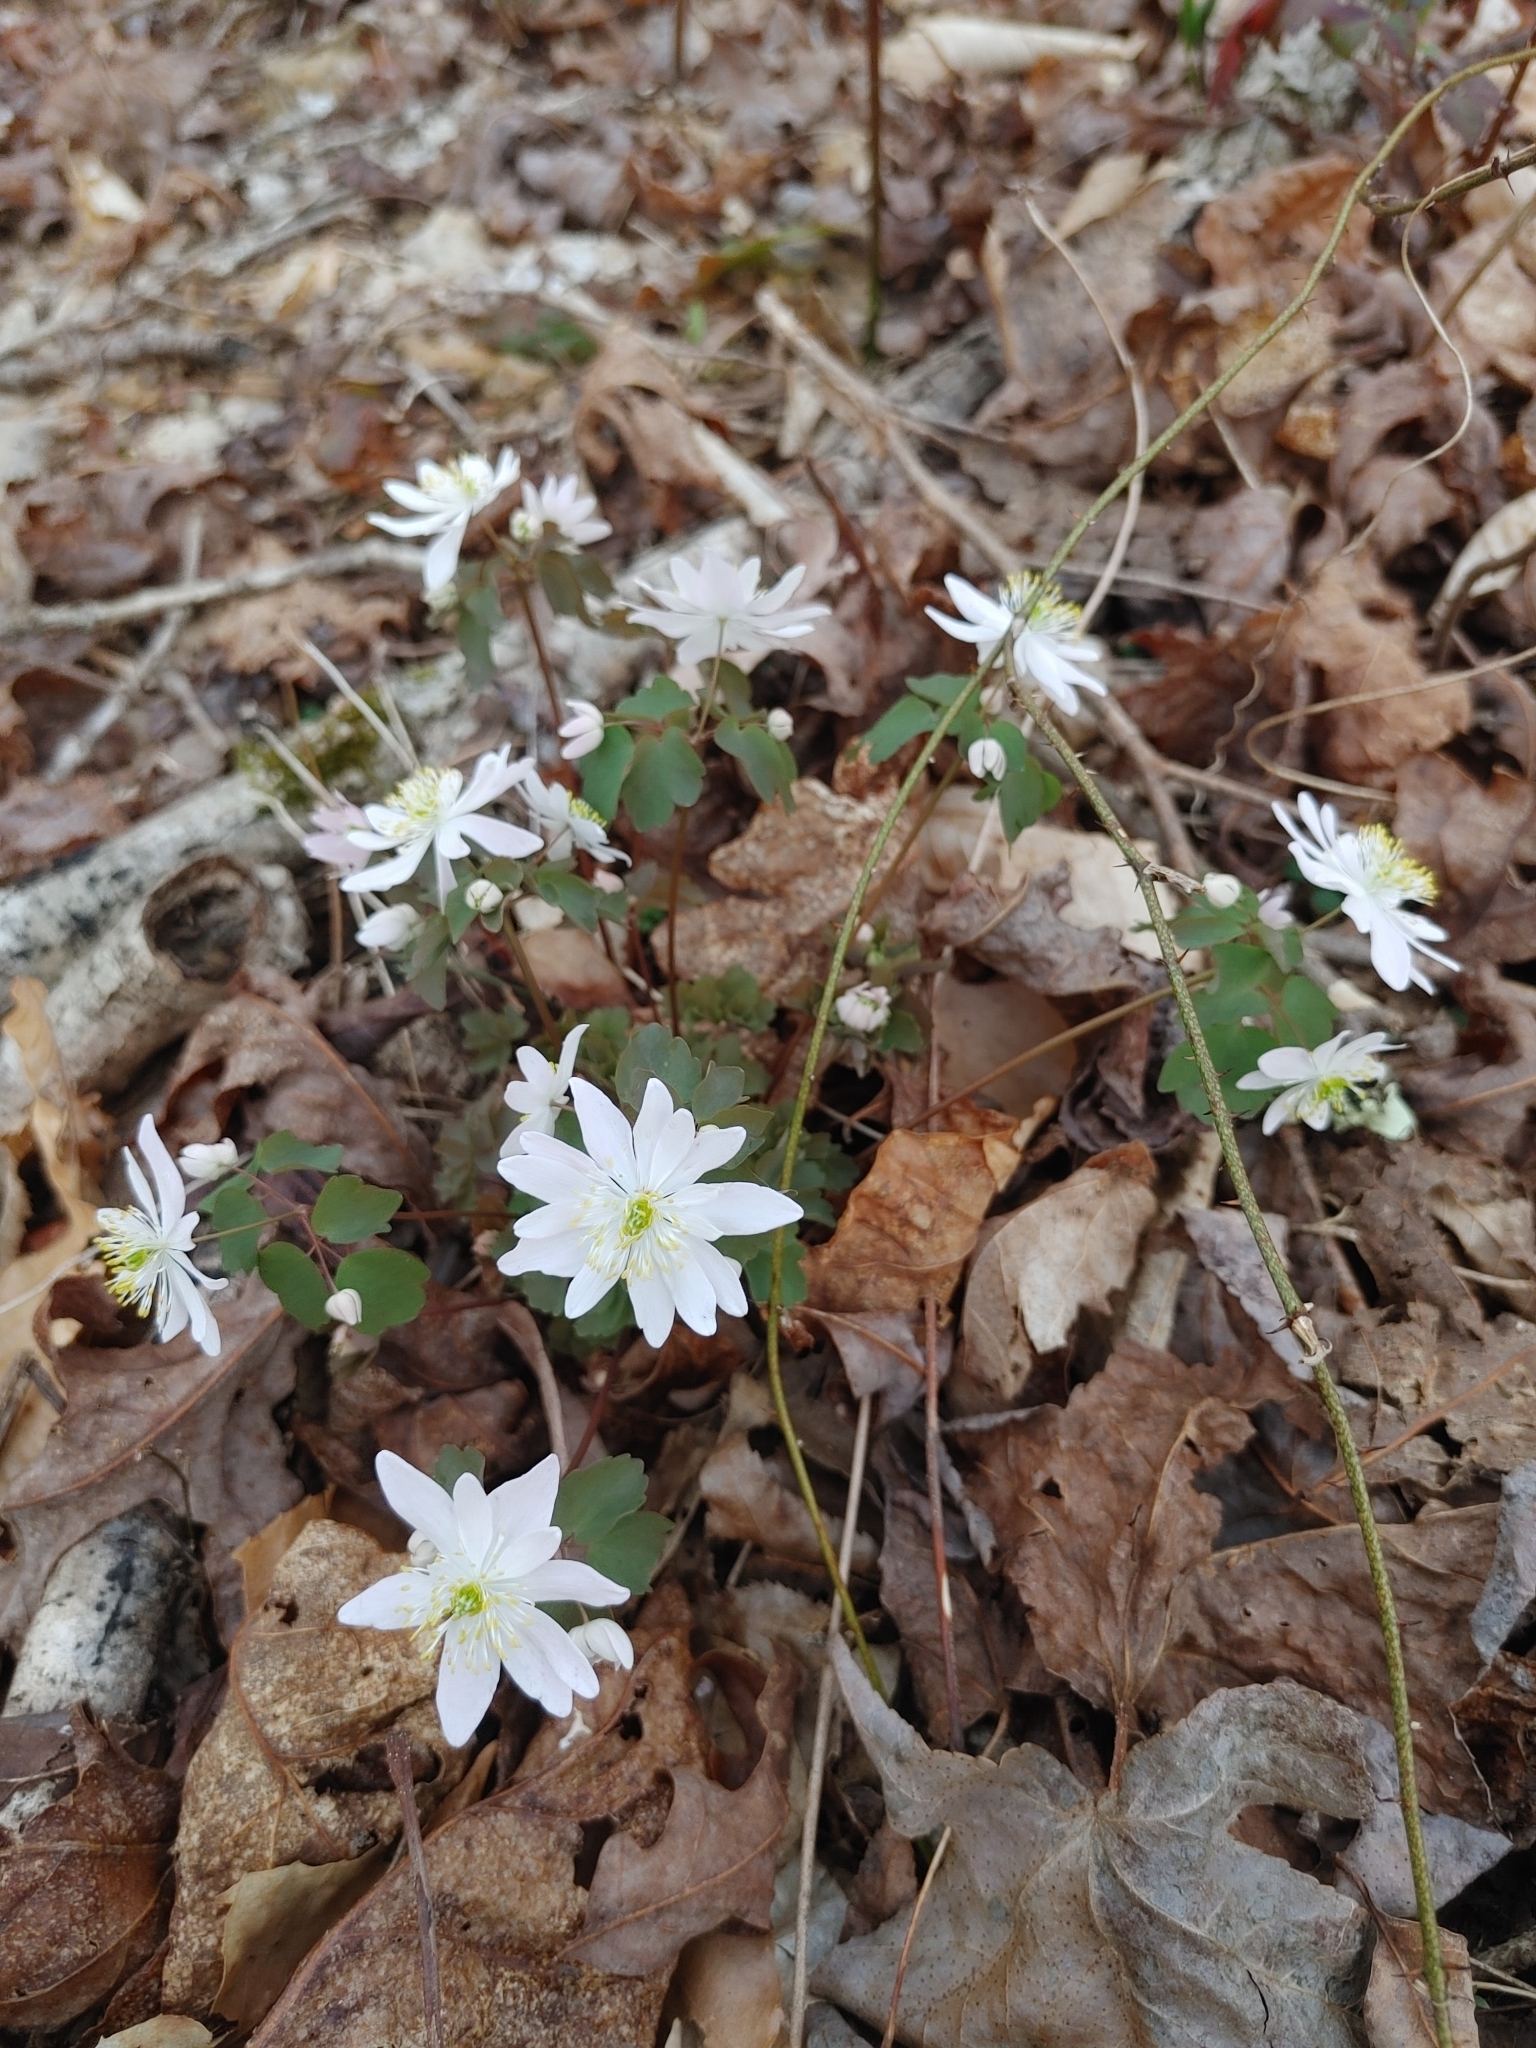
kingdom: Plantae
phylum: Tracheophyta
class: Magnoliopsida
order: Ranunculales
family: Ranunculaceae
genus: Thalictrum
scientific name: Thalictrum thalictroides
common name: Rue-anemone
